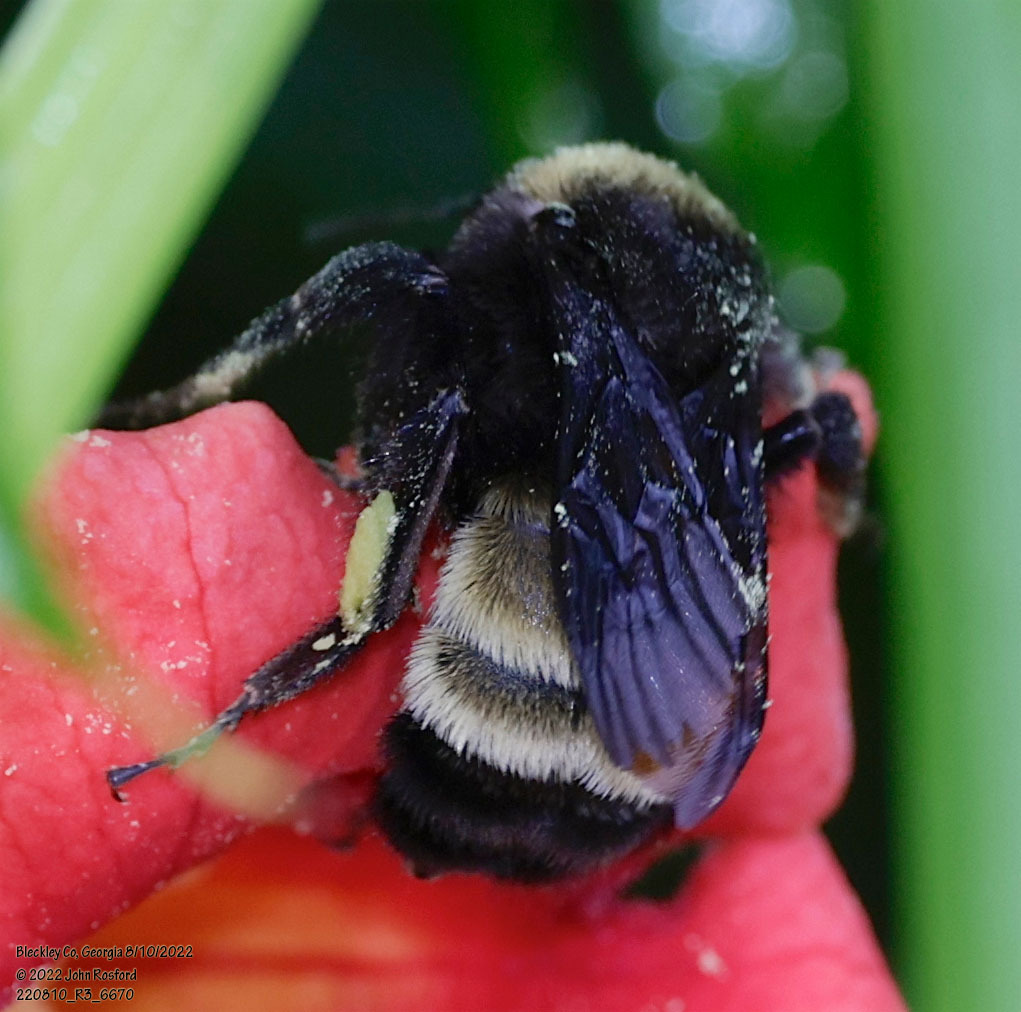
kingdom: Animalia
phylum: Arthropoda
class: Insecta
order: Hymenoptera
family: Apidae
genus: Bombus
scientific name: Bombus pensylvanicus
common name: Bumble bee
